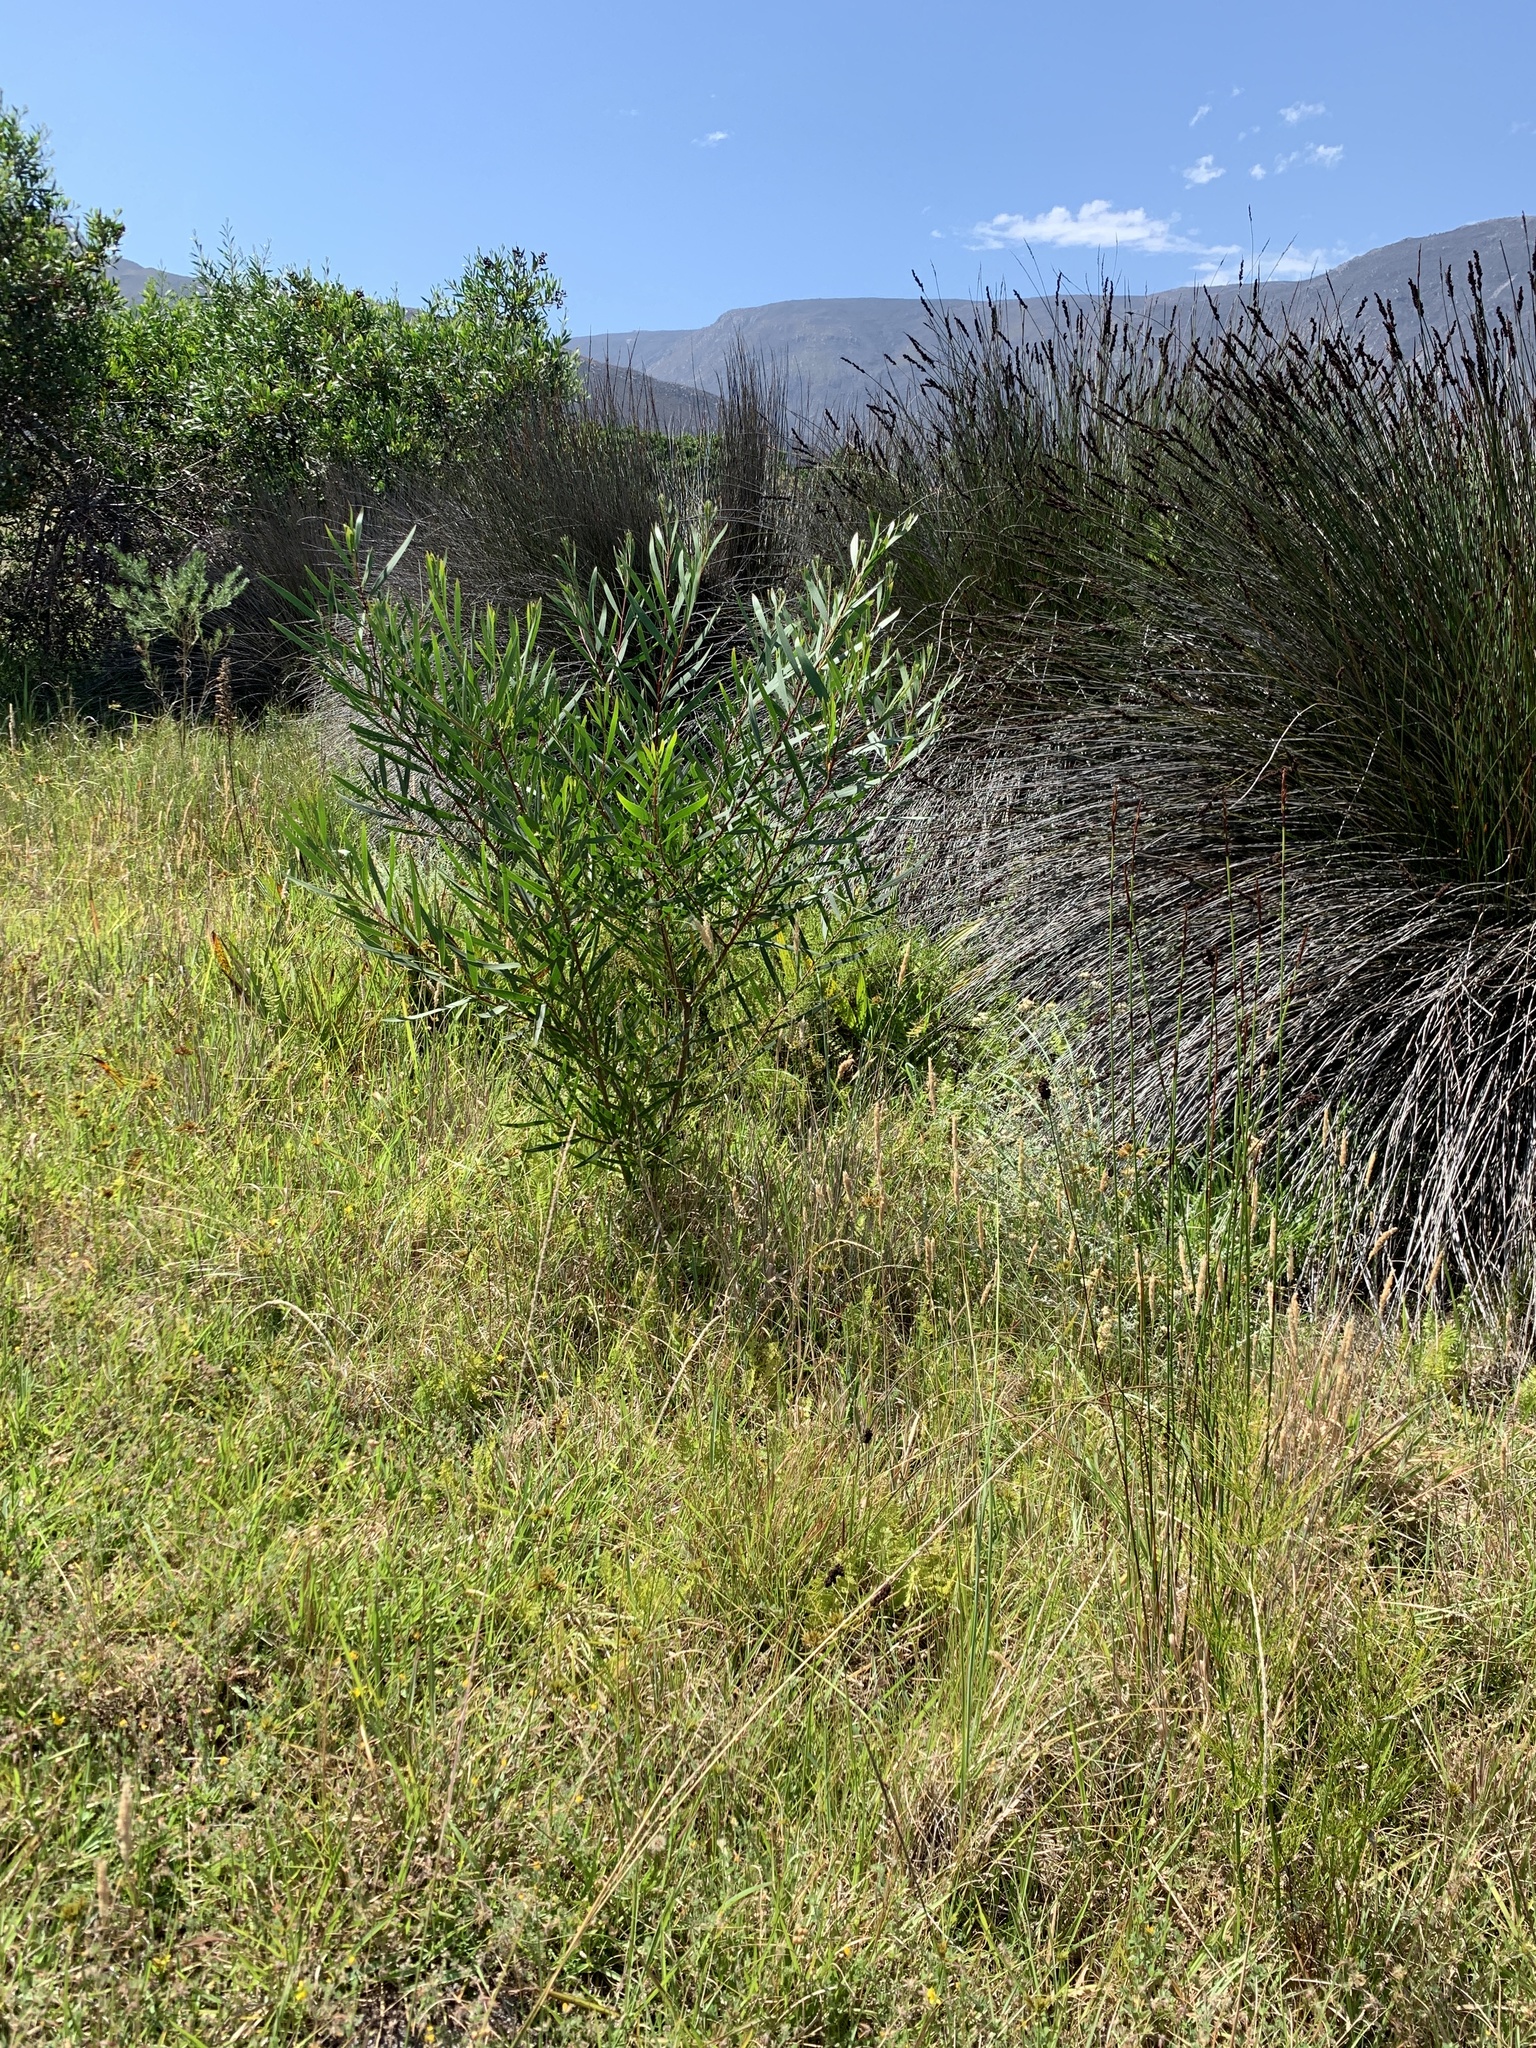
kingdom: Plantae
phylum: Tracheophyta
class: Magnoliopsida
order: Fabales
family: Fabaceae
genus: Acacia
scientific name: Acacia longifolia
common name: Sydney golden wattle
